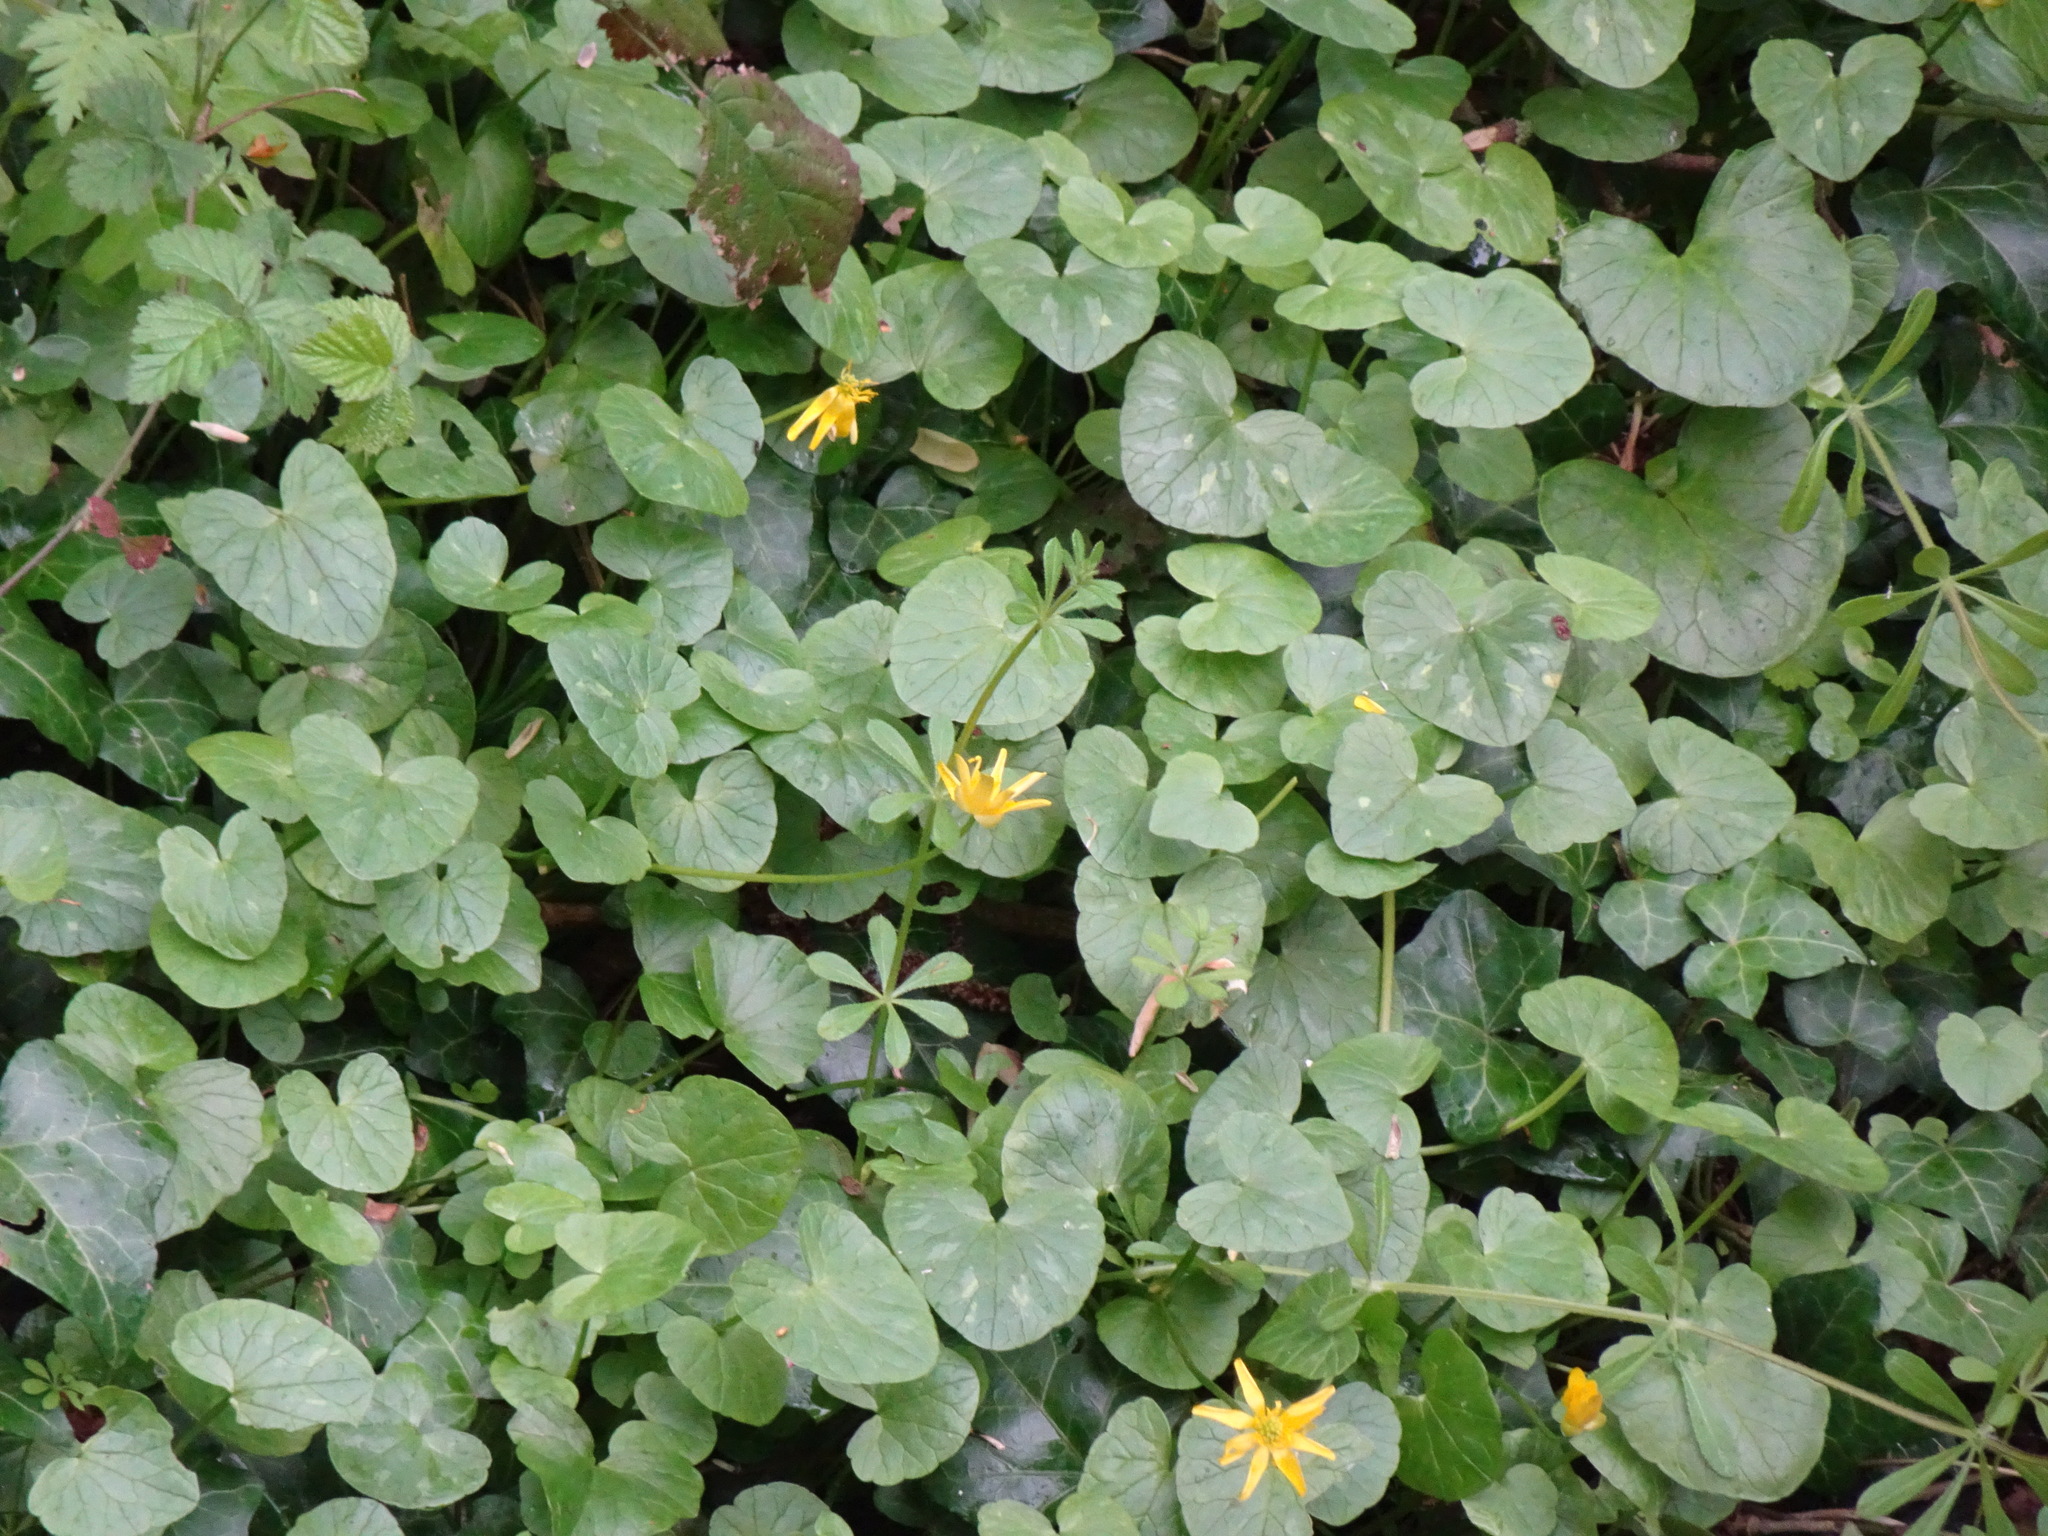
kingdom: Plantae
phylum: Tracheophyta
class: Magnoliopsida
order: Ranunculales
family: Ranunculaceae
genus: Ficaria
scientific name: Ficaria verna
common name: Lesser celandine
